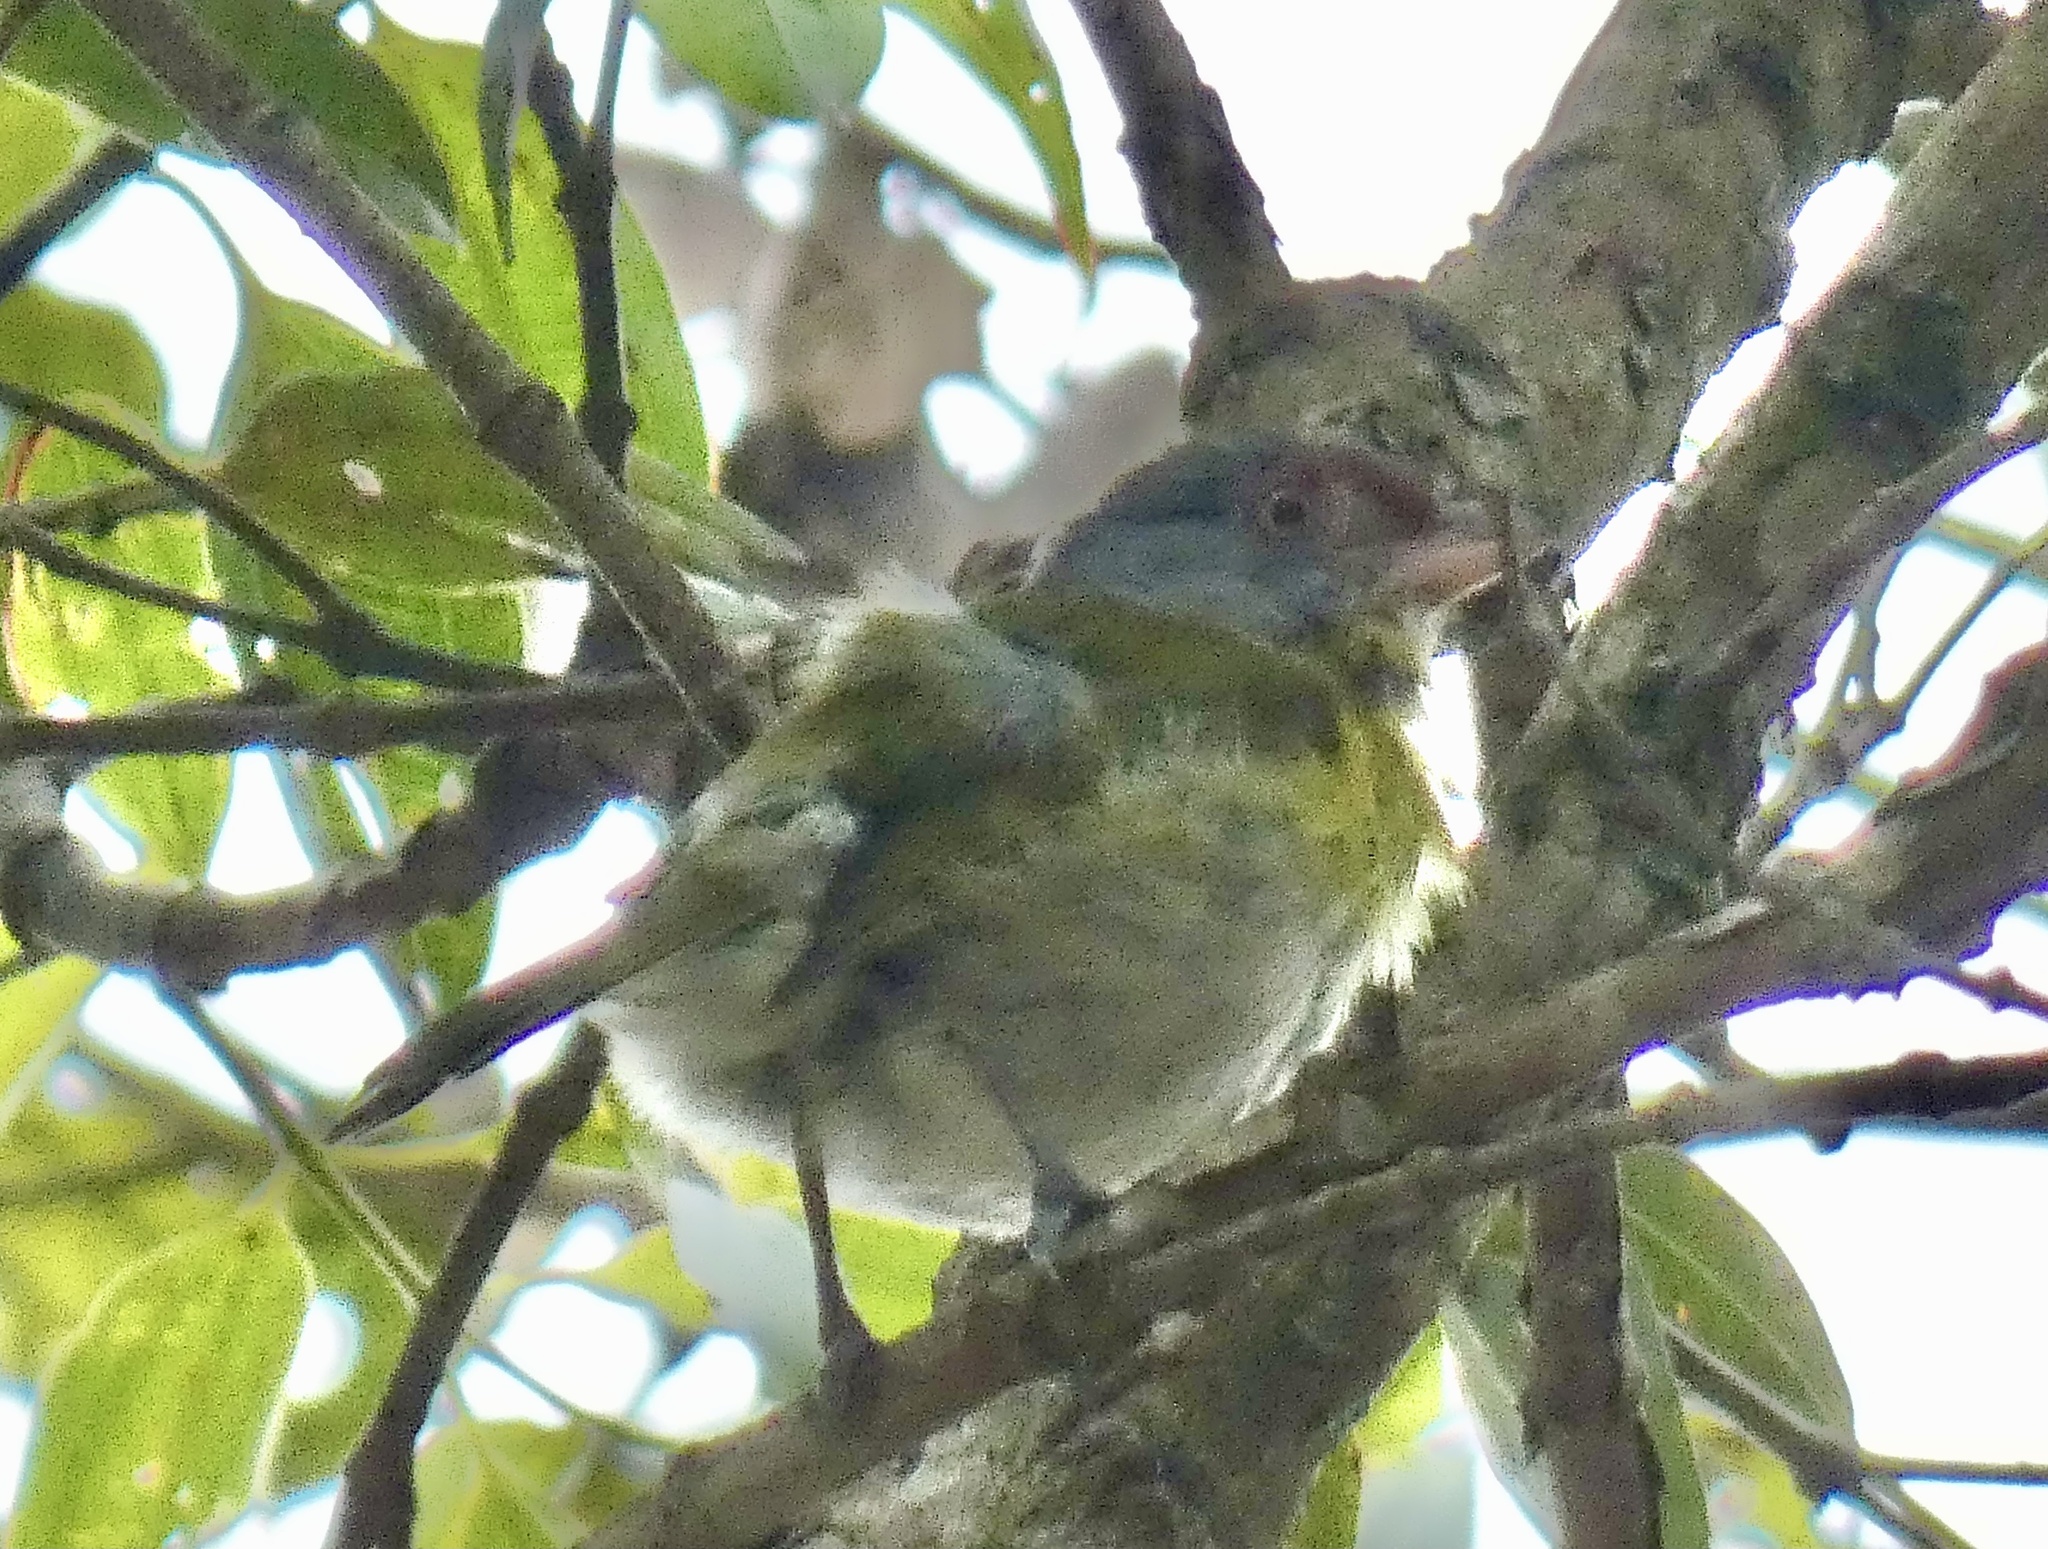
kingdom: Animalia
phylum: Chordata
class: Aves
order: Passeriformes
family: Vireonidae
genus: Cyclarhis
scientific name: Cyclarhis gujanensis
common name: Rufous-browed peppershrike
